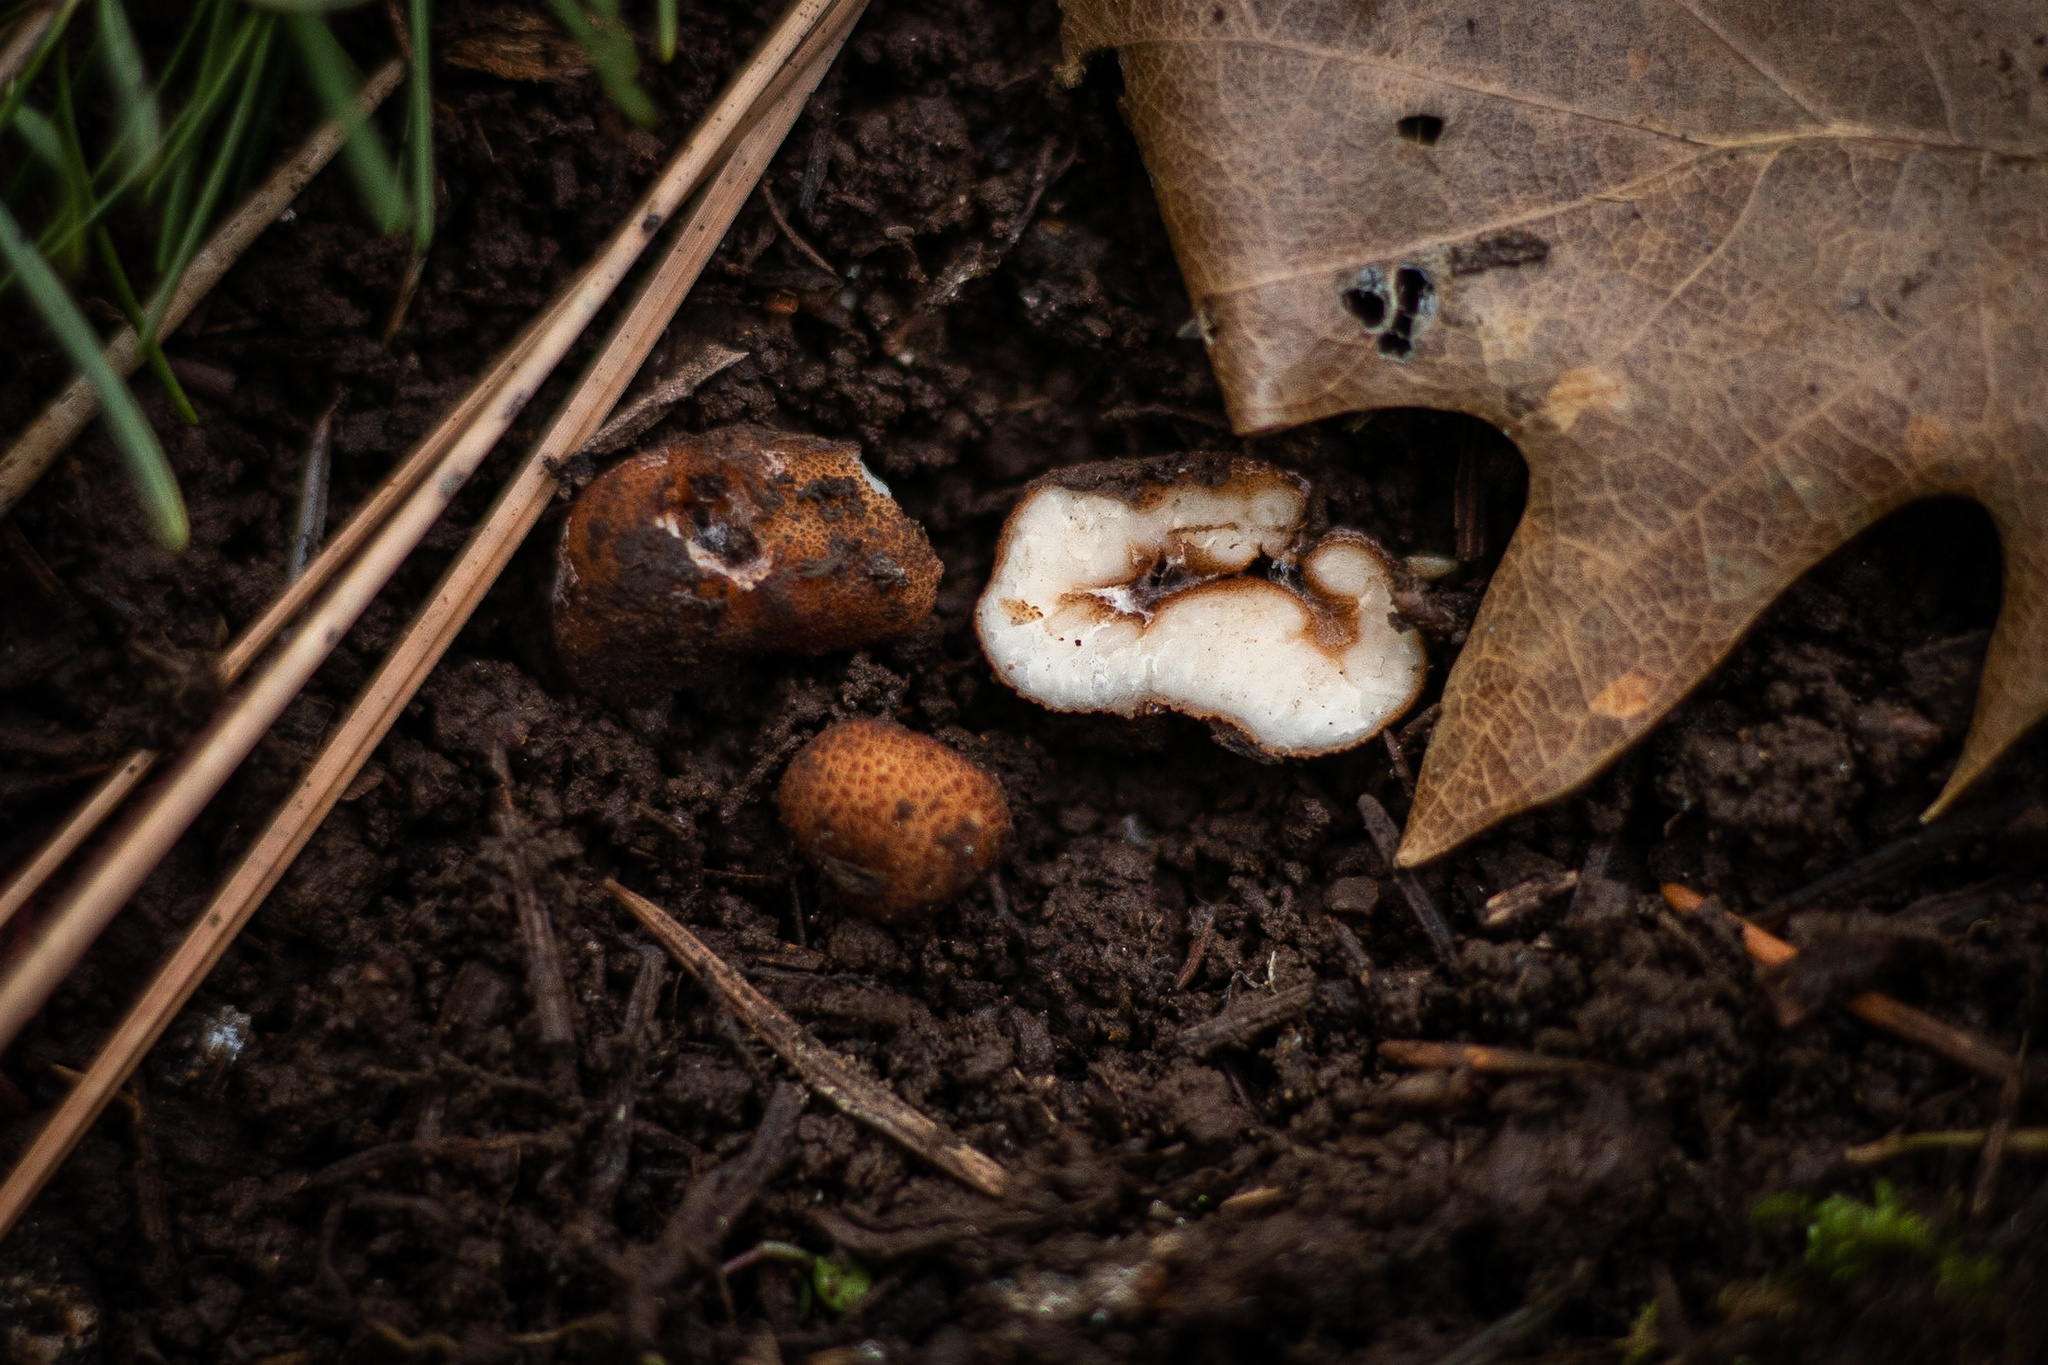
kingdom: Fungi
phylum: Ascomycota
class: Pezizomycetes
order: Pezizales
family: Helvellaceae
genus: Balsamia
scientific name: Balsamia filamentosa
